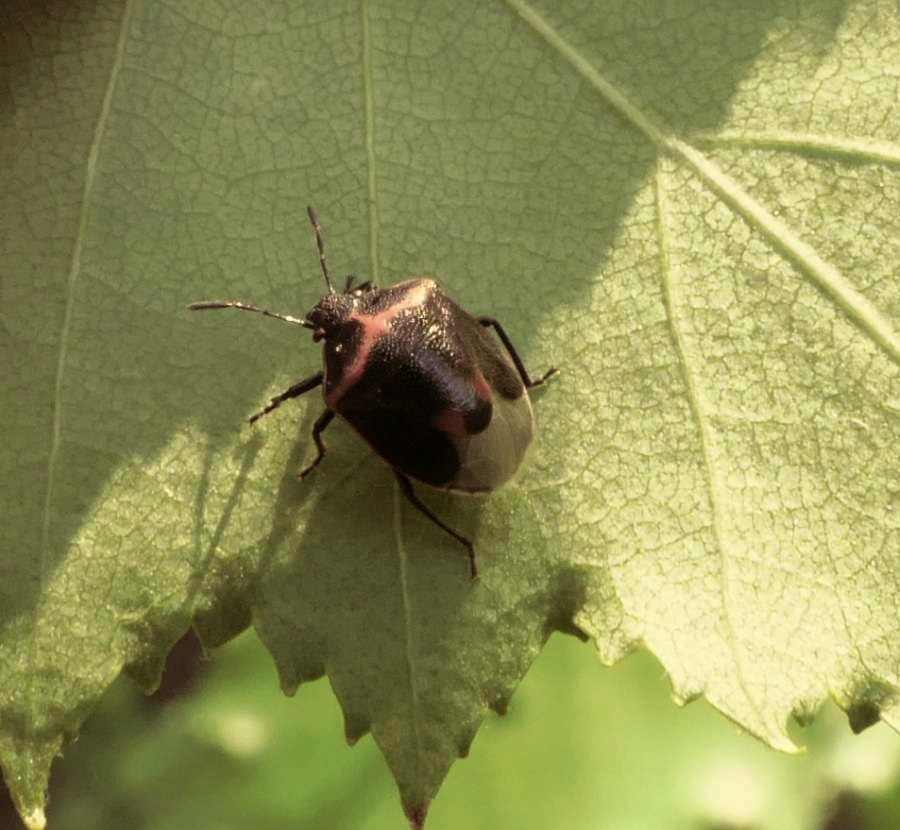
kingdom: Animalia
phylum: Arthropoda
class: Insecta
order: Hemiptera
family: Pentatomidae
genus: Cosmopepla
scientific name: Cosmopepla lintneriana
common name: Twice-stabbed stink bug
